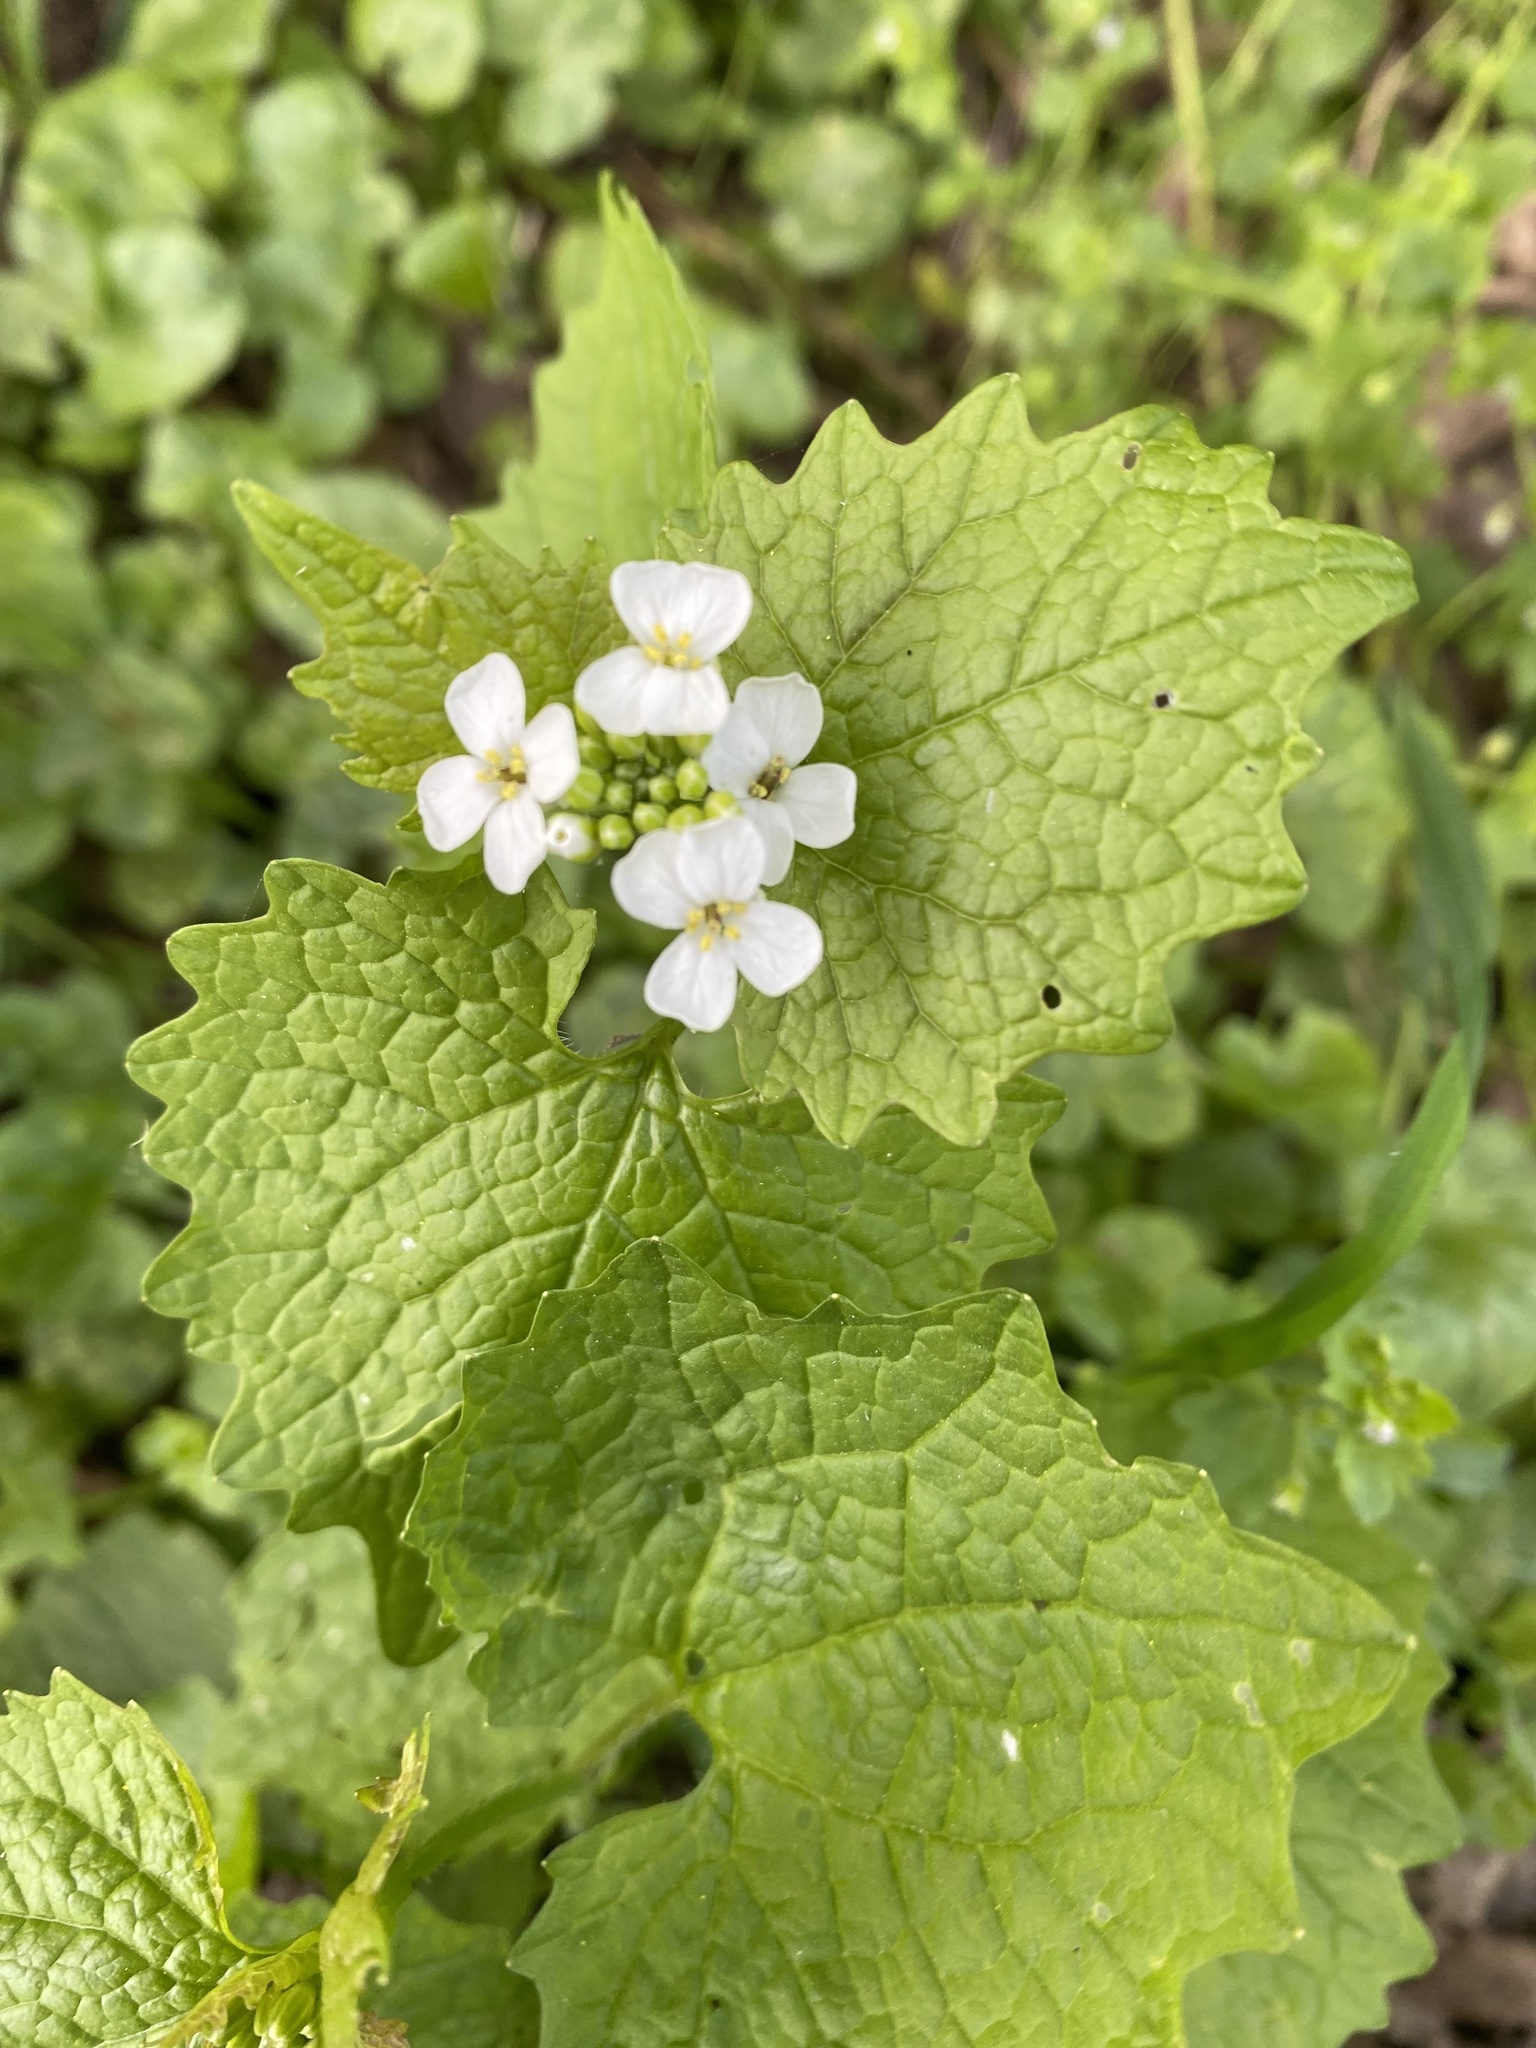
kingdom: Plantae
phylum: Tracheophyta
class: Magnoliopsida
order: Brassicales
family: Brassicaceae
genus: Alliaria
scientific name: Alliaria petiolata
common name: Garlic mustard
